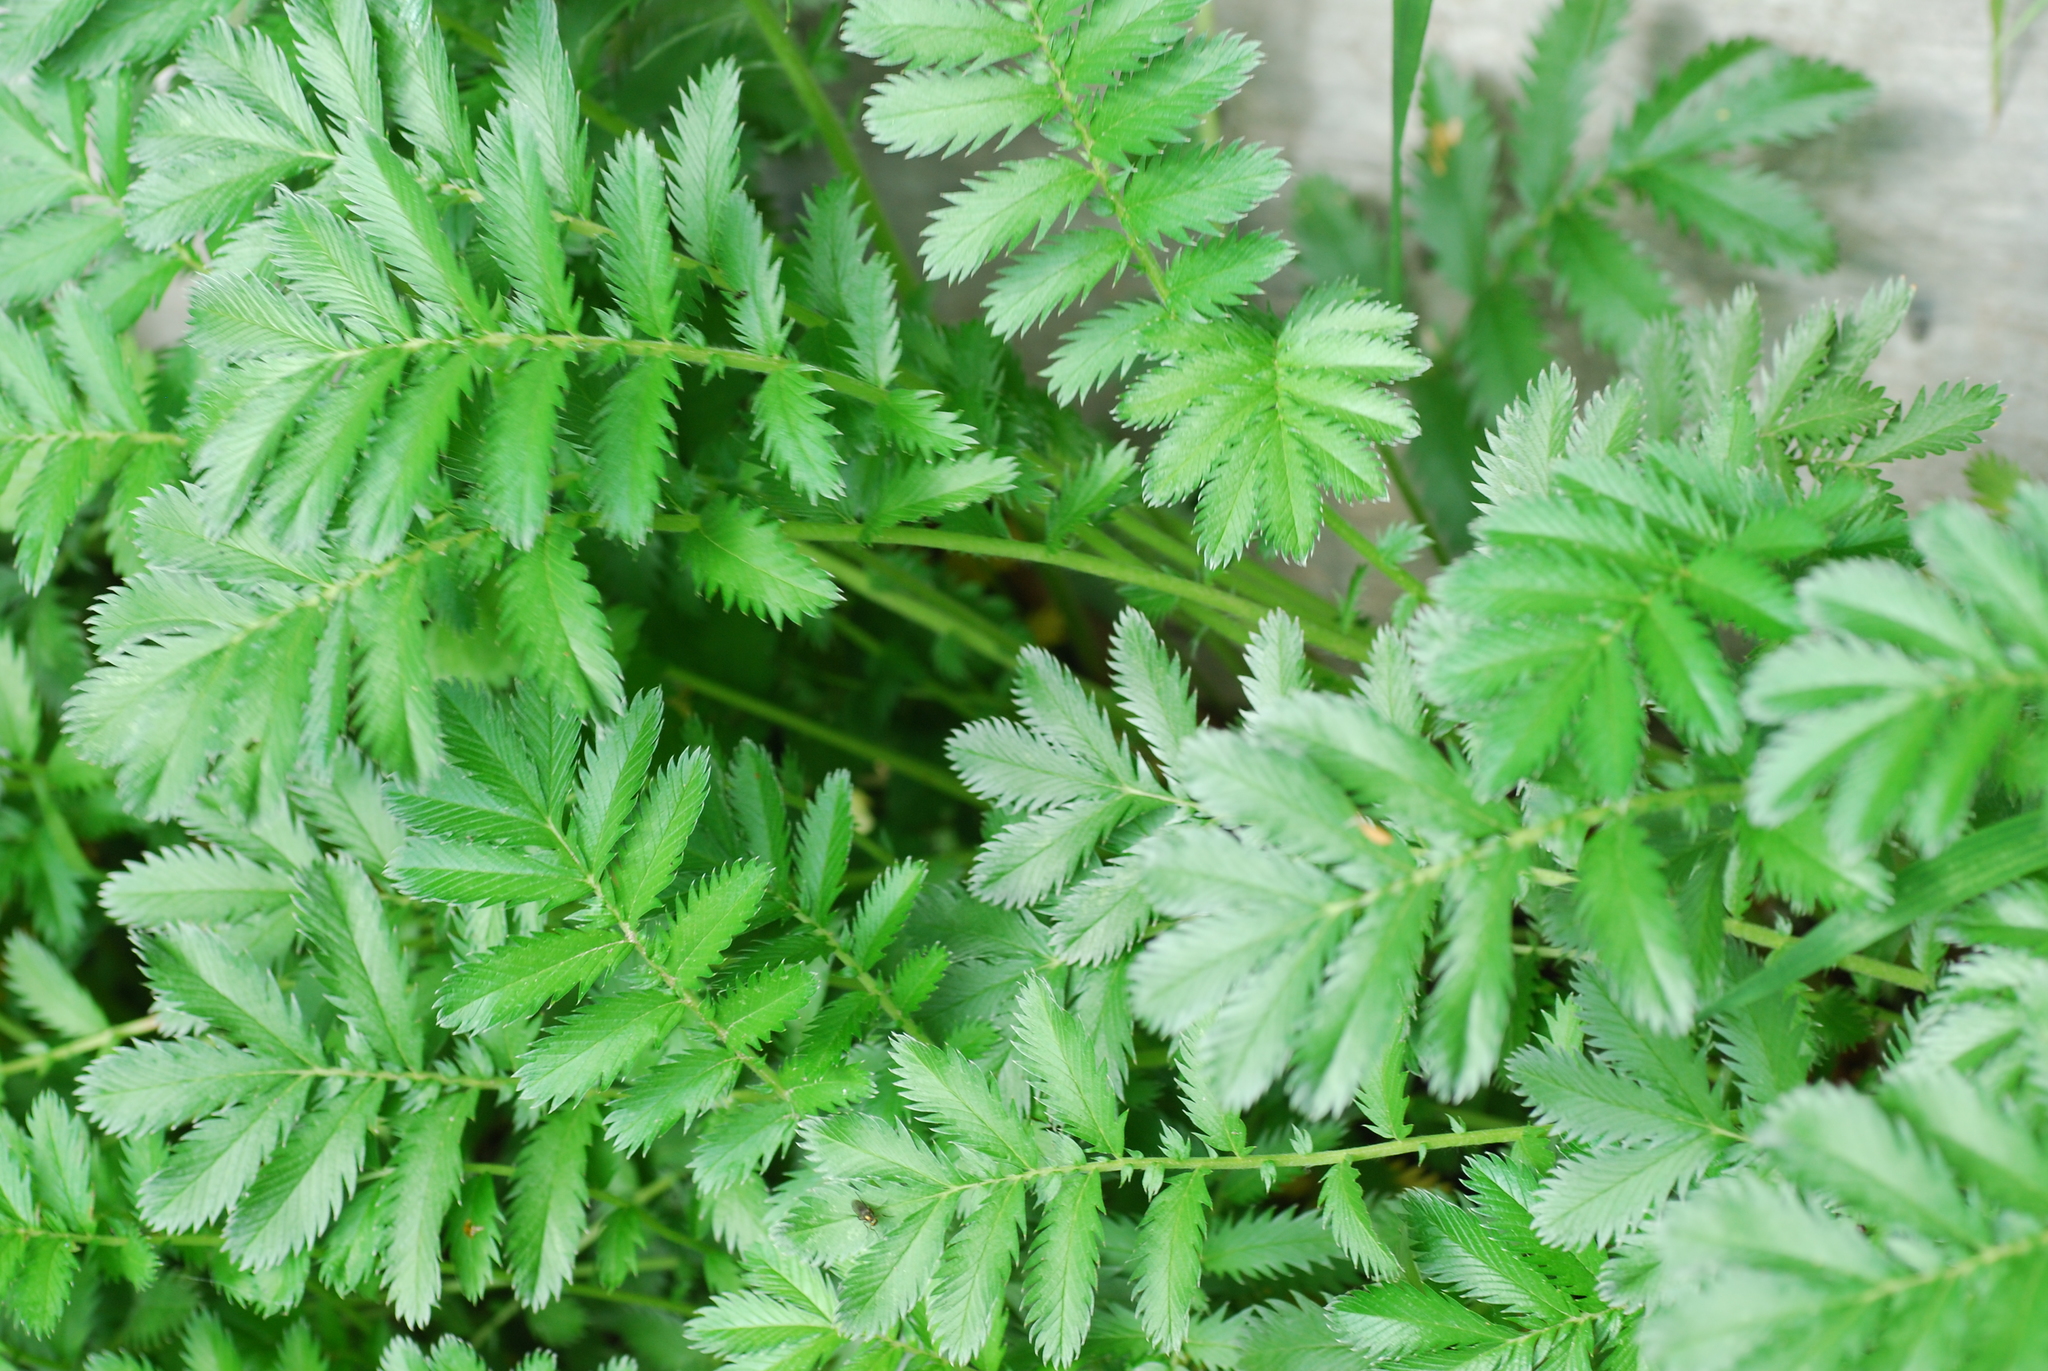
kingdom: Plantae
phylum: Tracheophyta
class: Magnoliopsida
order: Rosales
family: Rosaceae
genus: Argentina
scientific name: Argentina anserina
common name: Common silverweed
